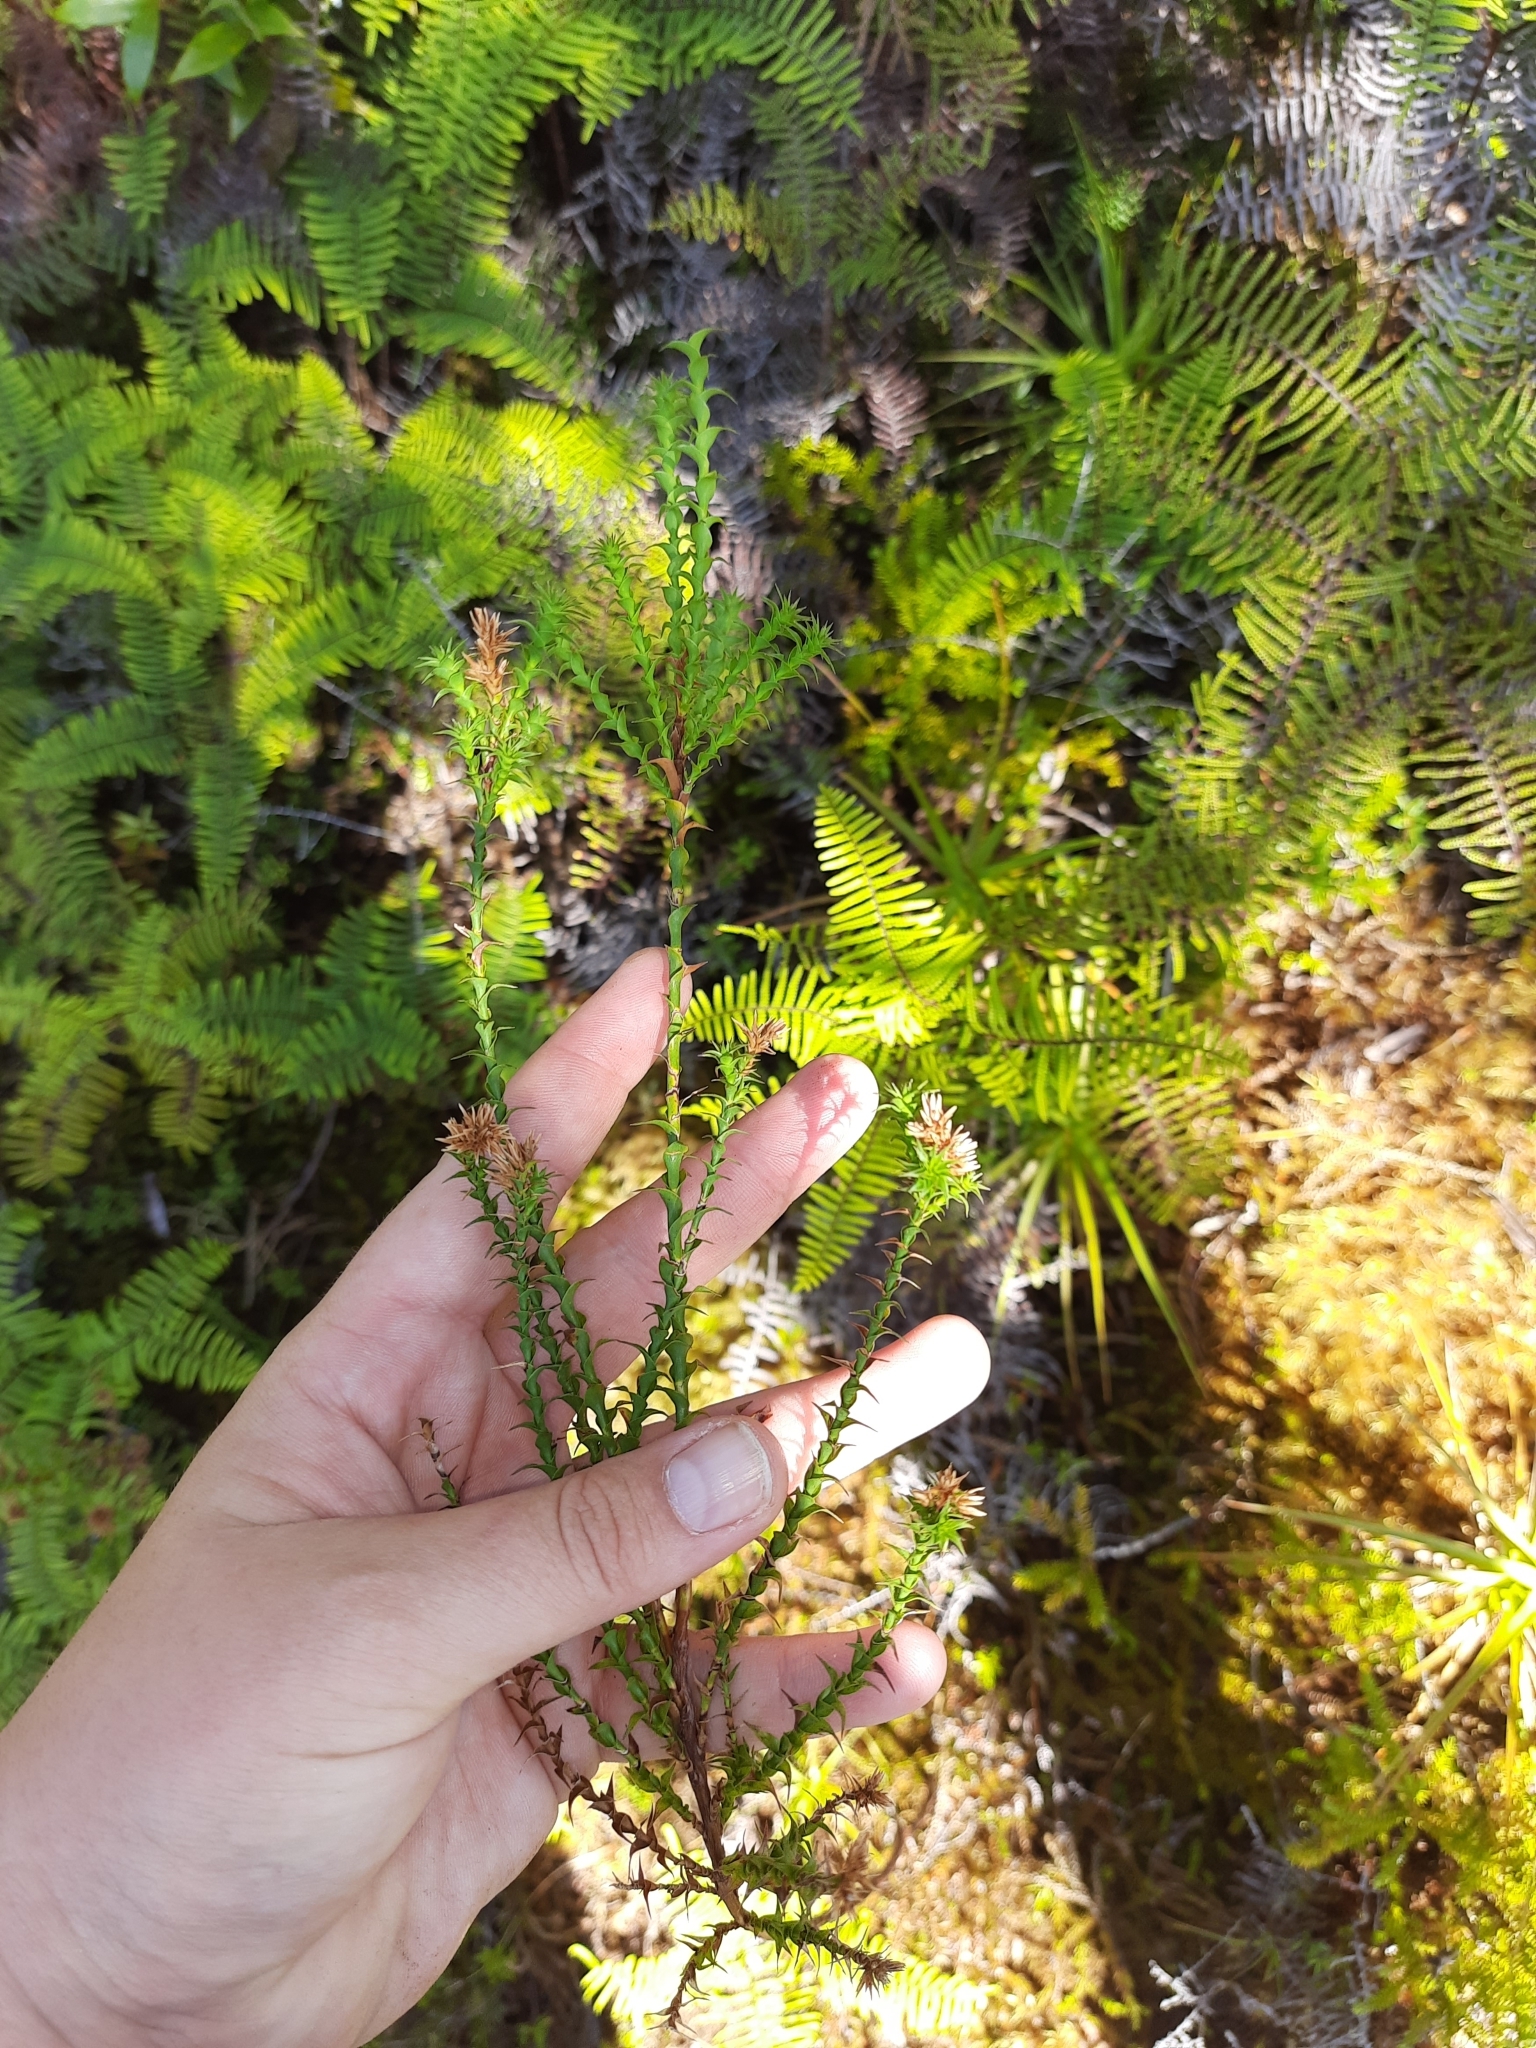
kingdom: Plantae
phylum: Tracheophyta
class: Magnoliopsida
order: Ericales
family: Ericaceae
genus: Sprengelia
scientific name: Sprengelia incarnata
